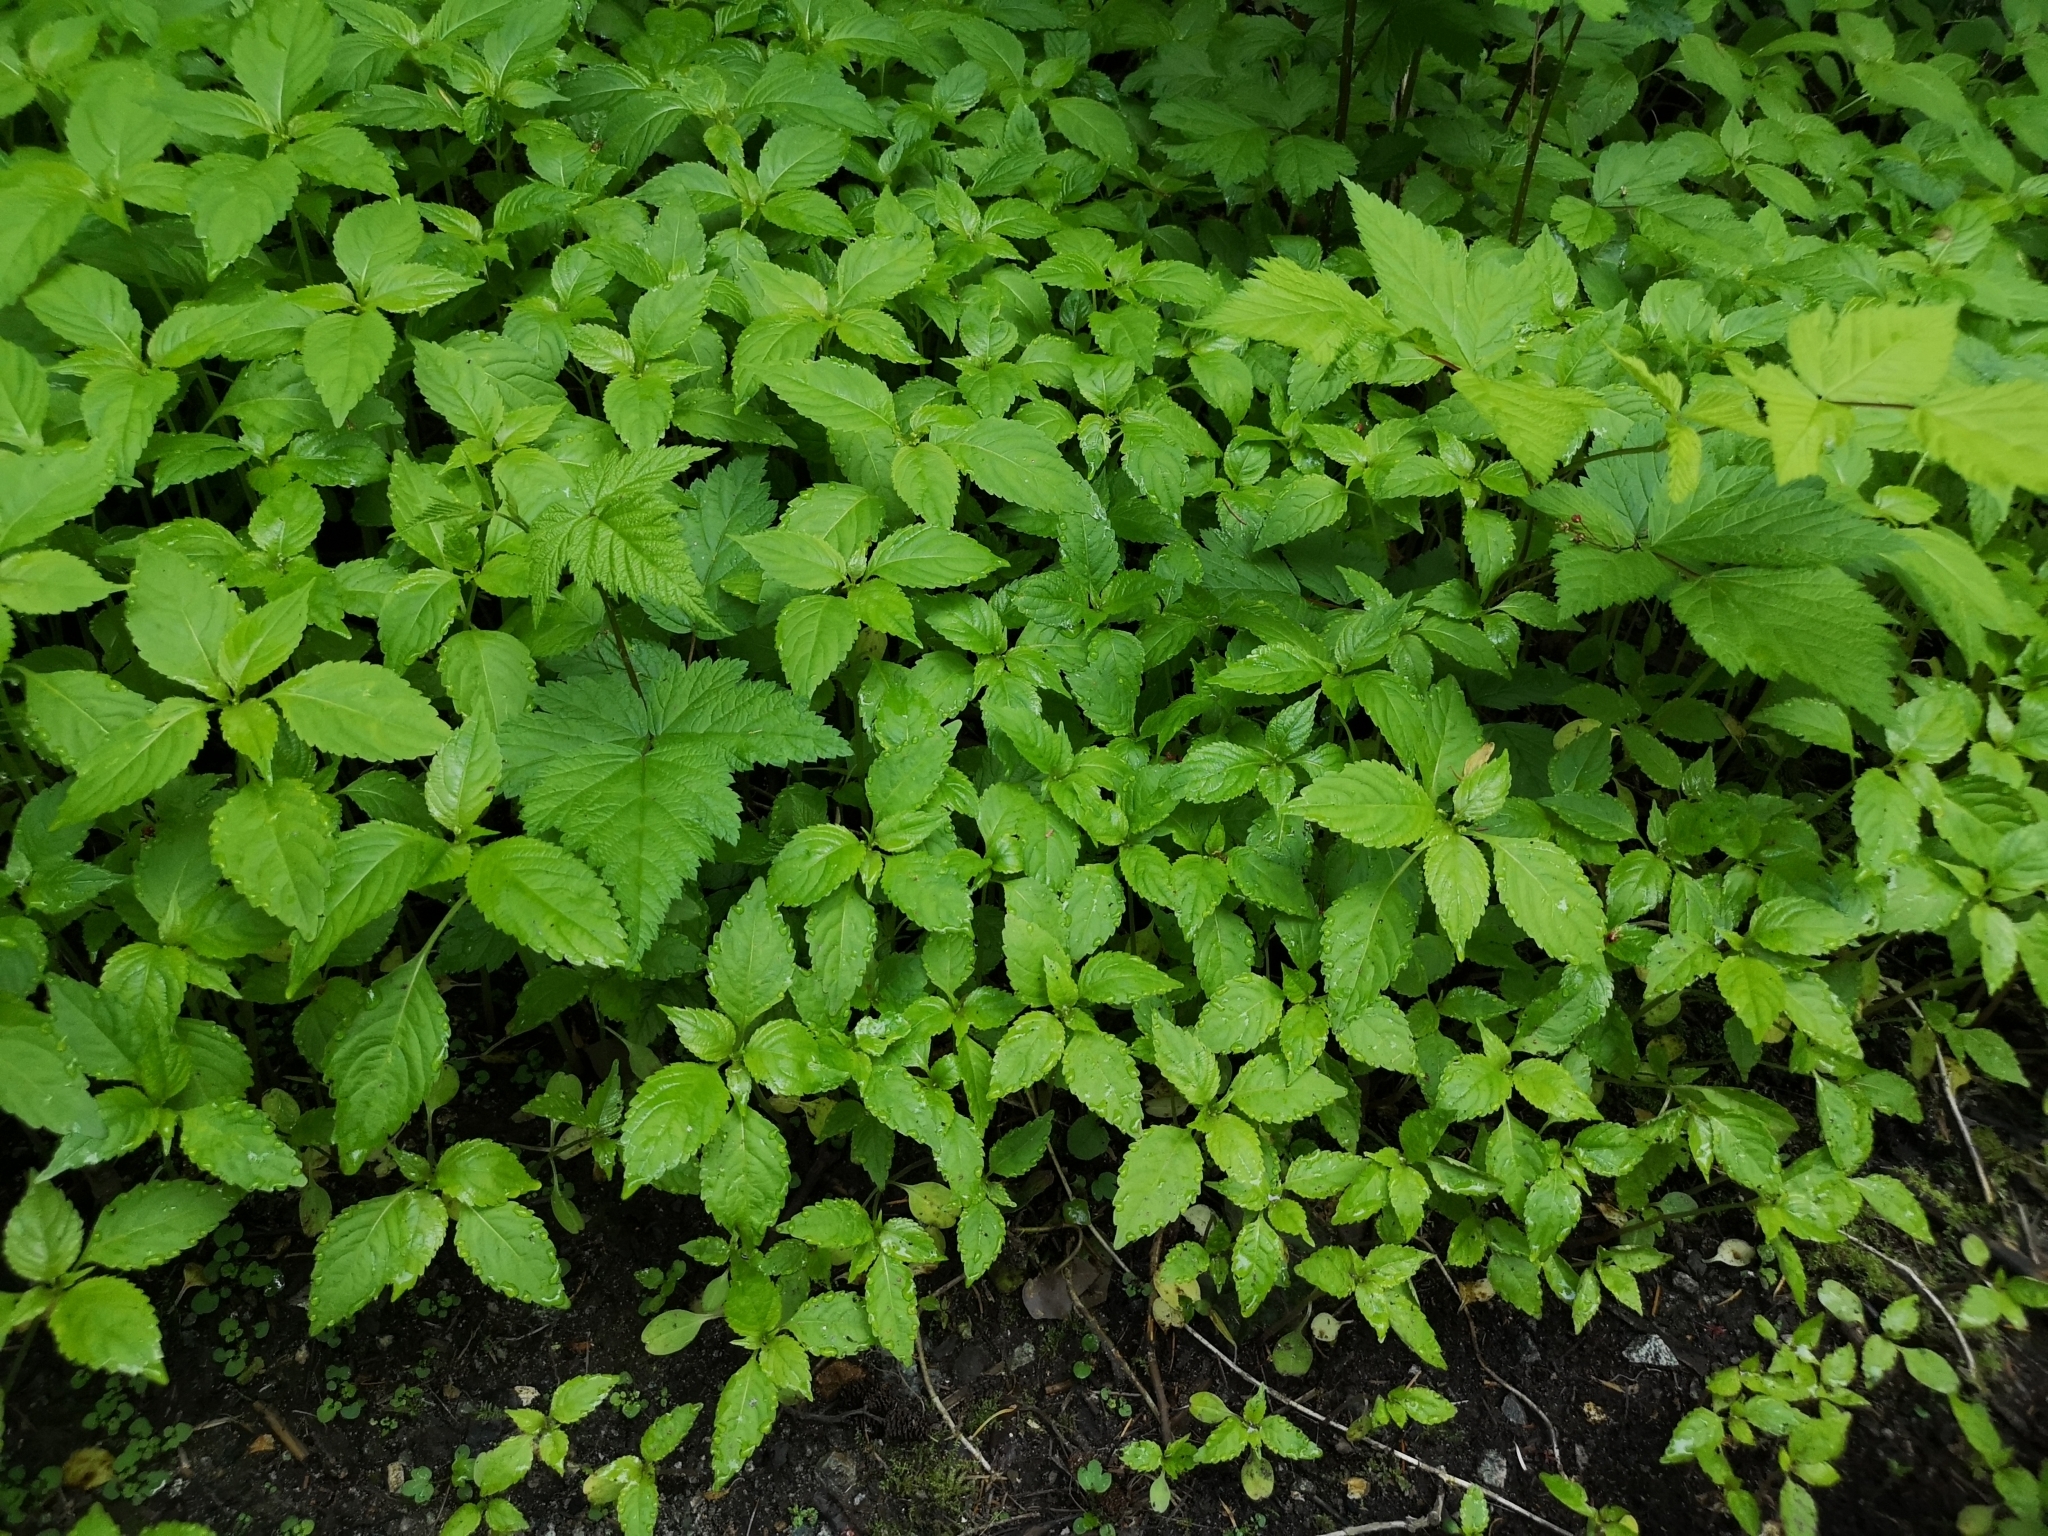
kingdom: Plantae
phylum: Tracheophyta
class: Magnoliopsida
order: Ericales
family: Balsaminaceae
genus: Impatiens
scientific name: Impatiens parviflora
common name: Small balsam
